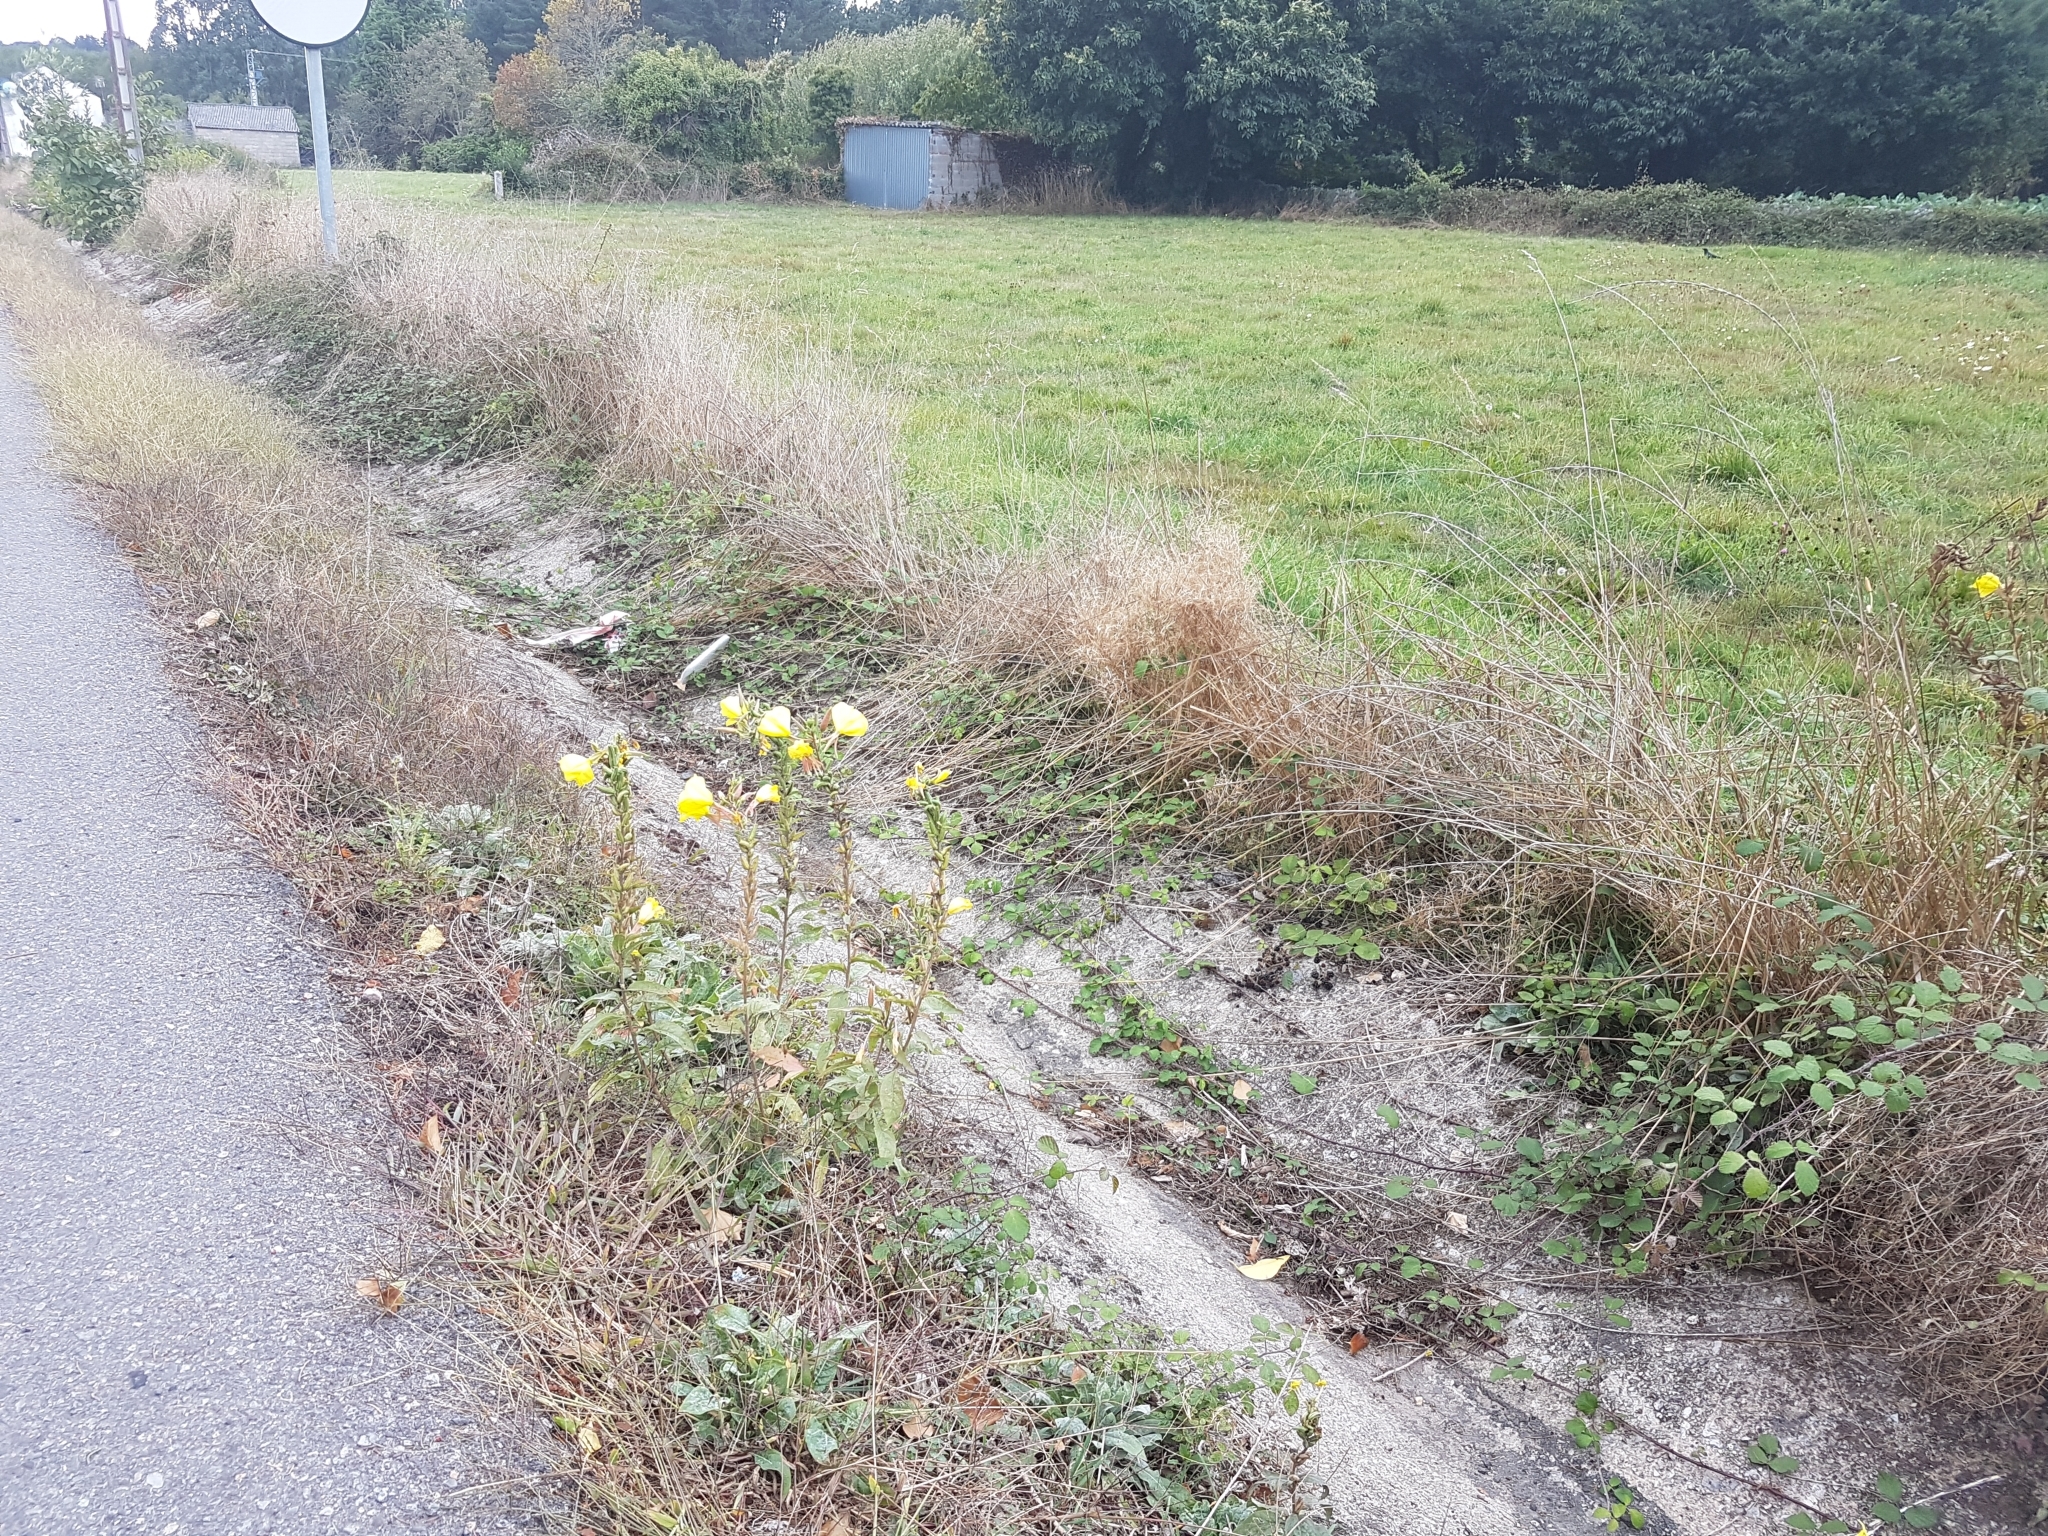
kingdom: Plantae
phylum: Tracheophyta
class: Magnoliopsida
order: Myrtales
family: Onagraceae
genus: Oenothera
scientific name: Oenothera glazioviana
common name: Large-flowered evening-primrose
